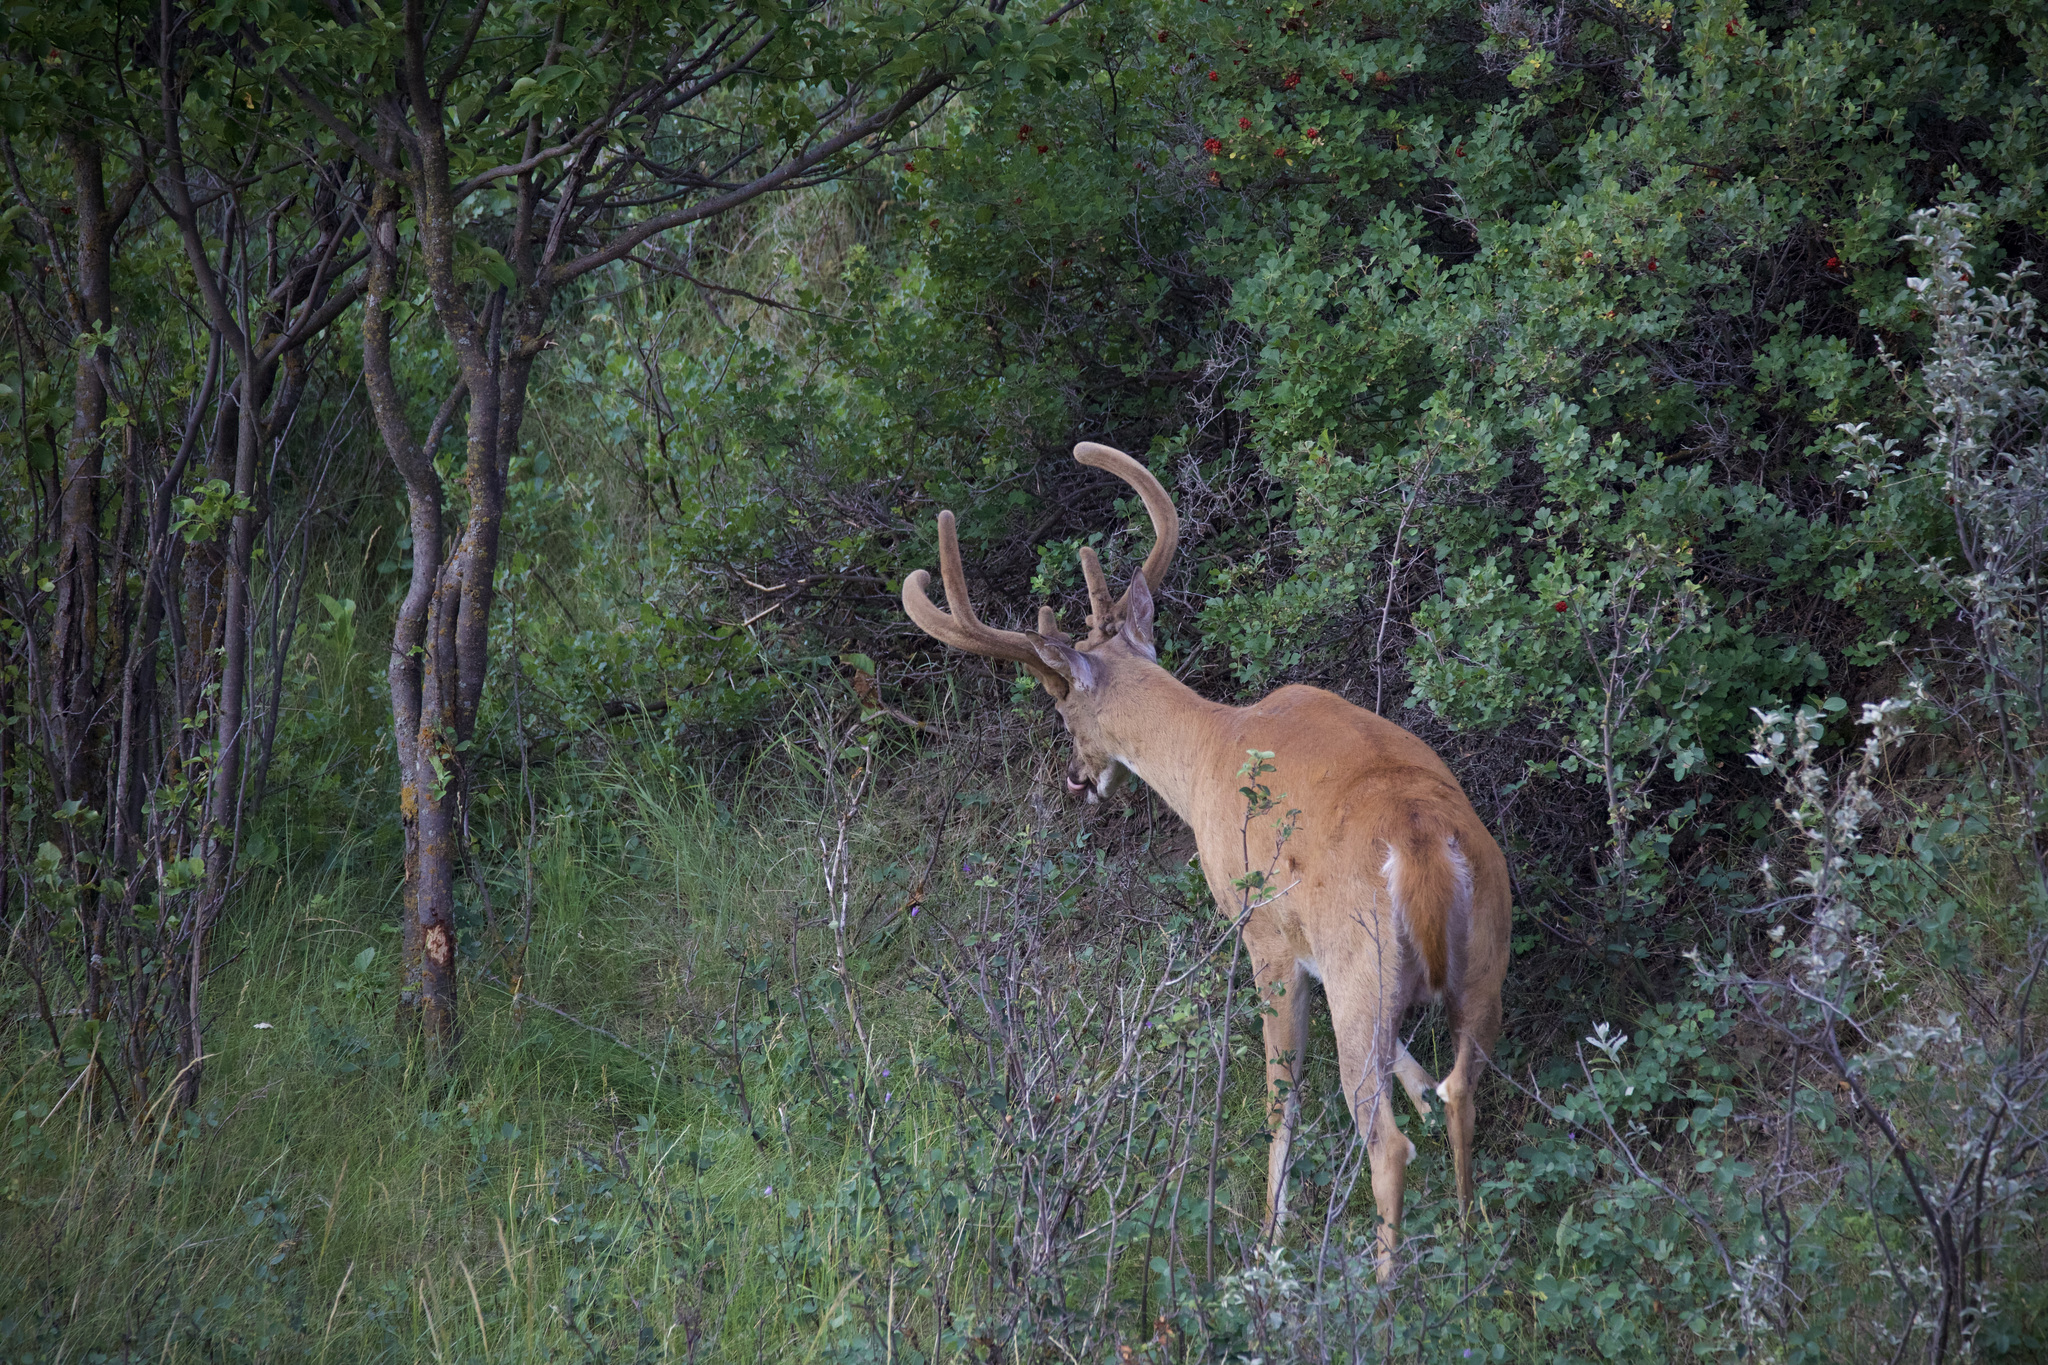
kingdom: Animalia
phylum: Chordata
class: Mammalia
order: Artiodactyla
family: Cervidae
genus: Odocoileus
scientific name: Odocoileus virginianus
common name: White-tailed deer
